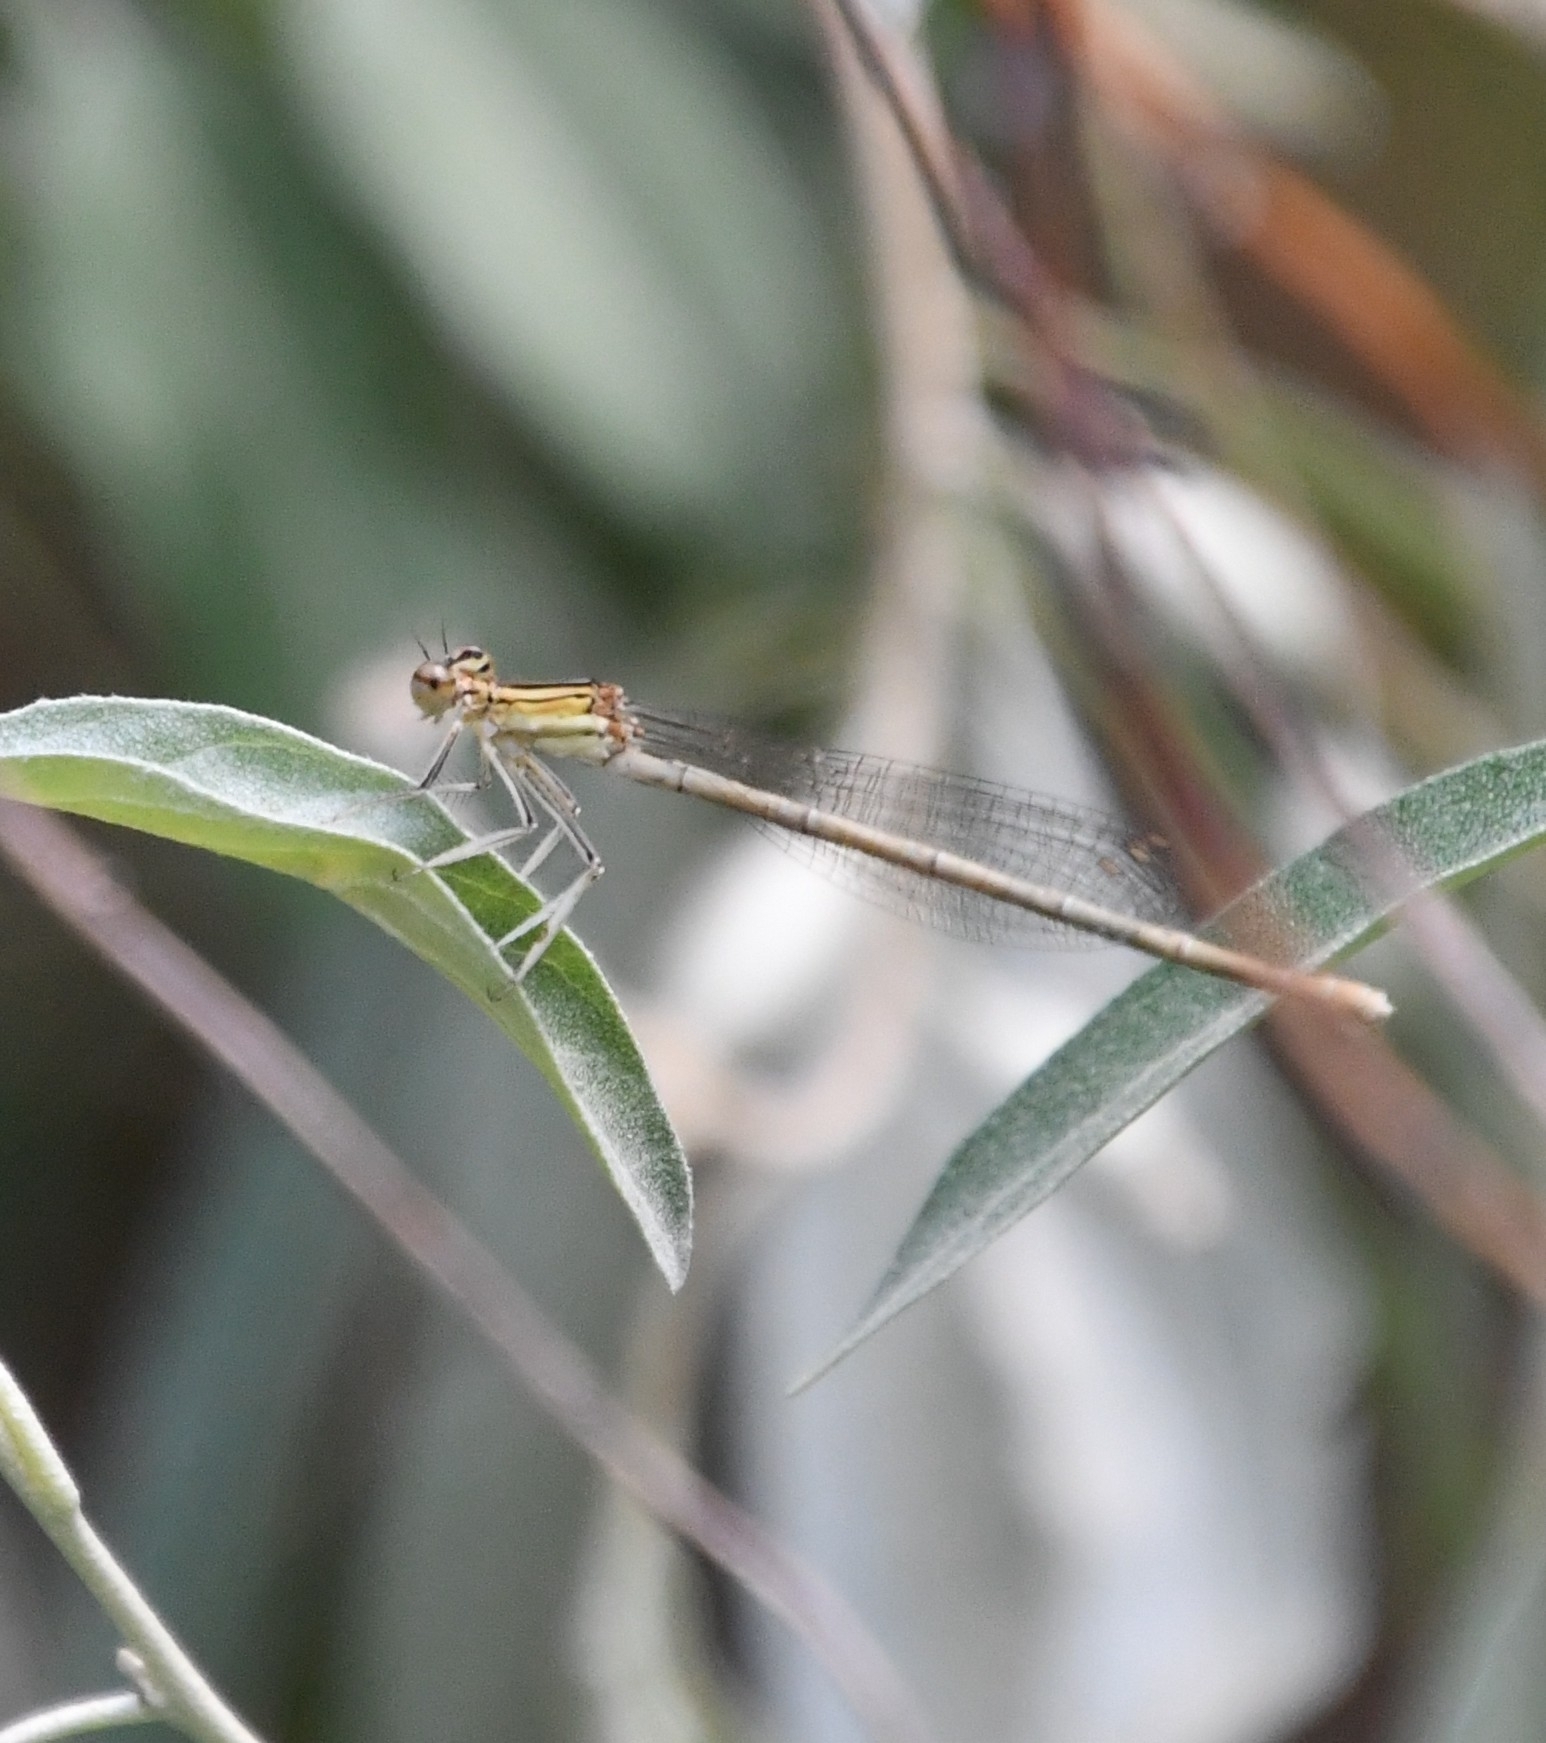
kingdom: Animalia
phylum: Arthropoda
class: Insecta
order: Odonata
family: Platycnemididae
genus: Platycnemis
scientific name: Platycnemis pennipes
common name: White-legged damselfly
